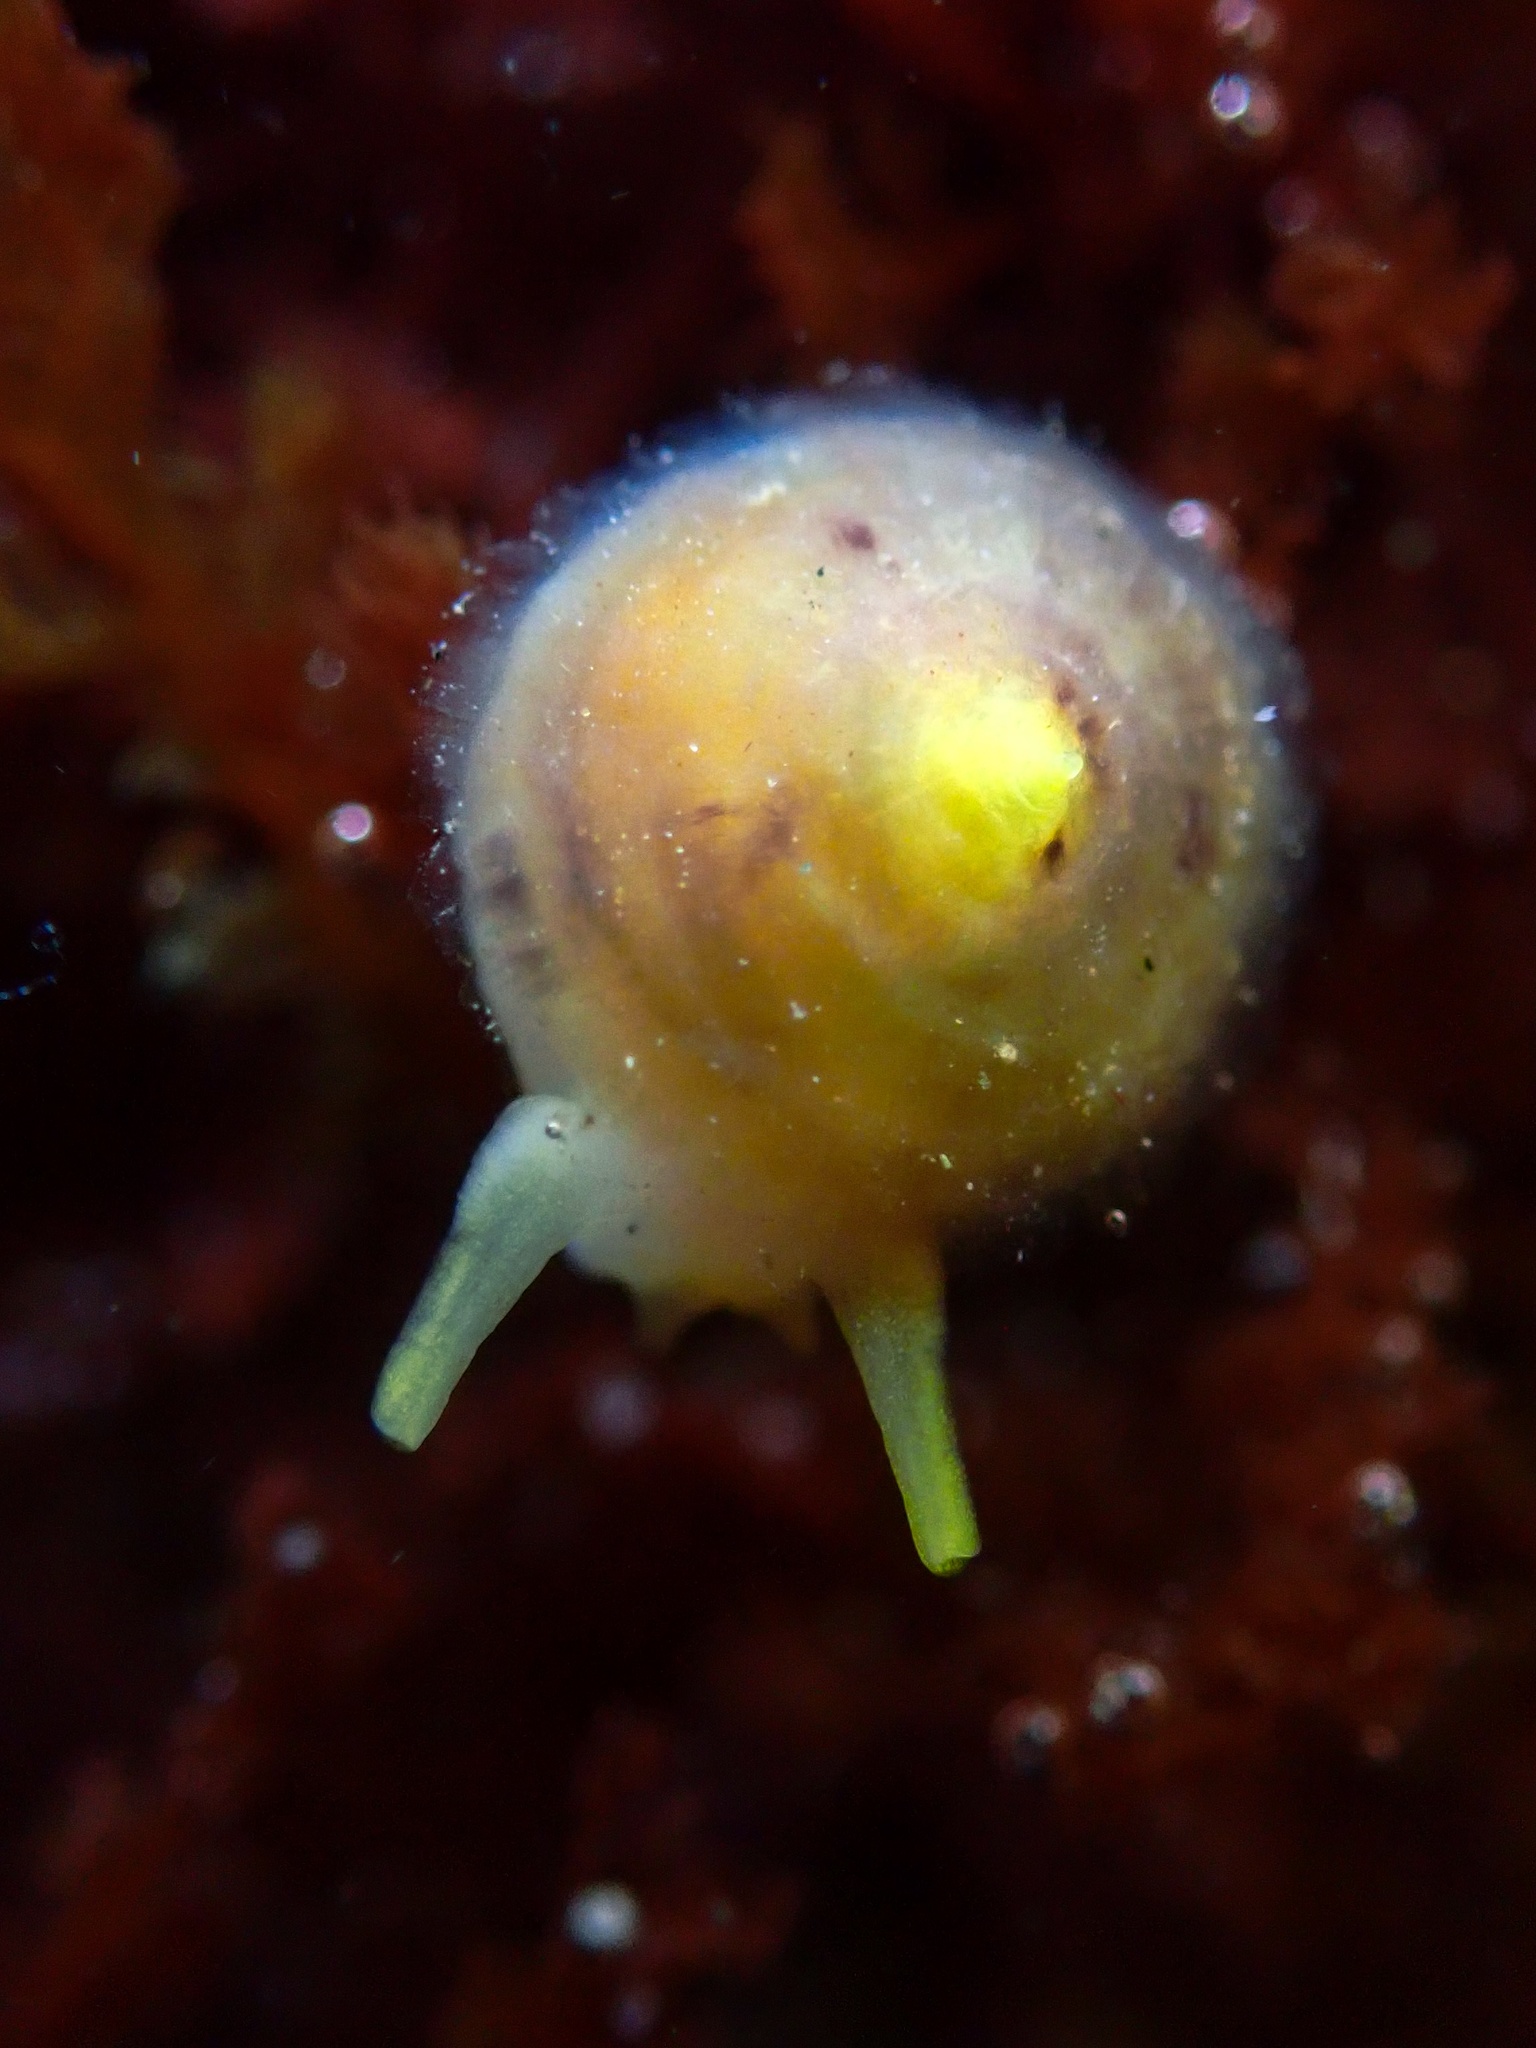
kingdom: Animalia
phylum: Mollusca
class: Gastropoda
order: Umbraculida
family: Tylodinidae
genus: Tylodina
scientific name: Tylodina fungina
